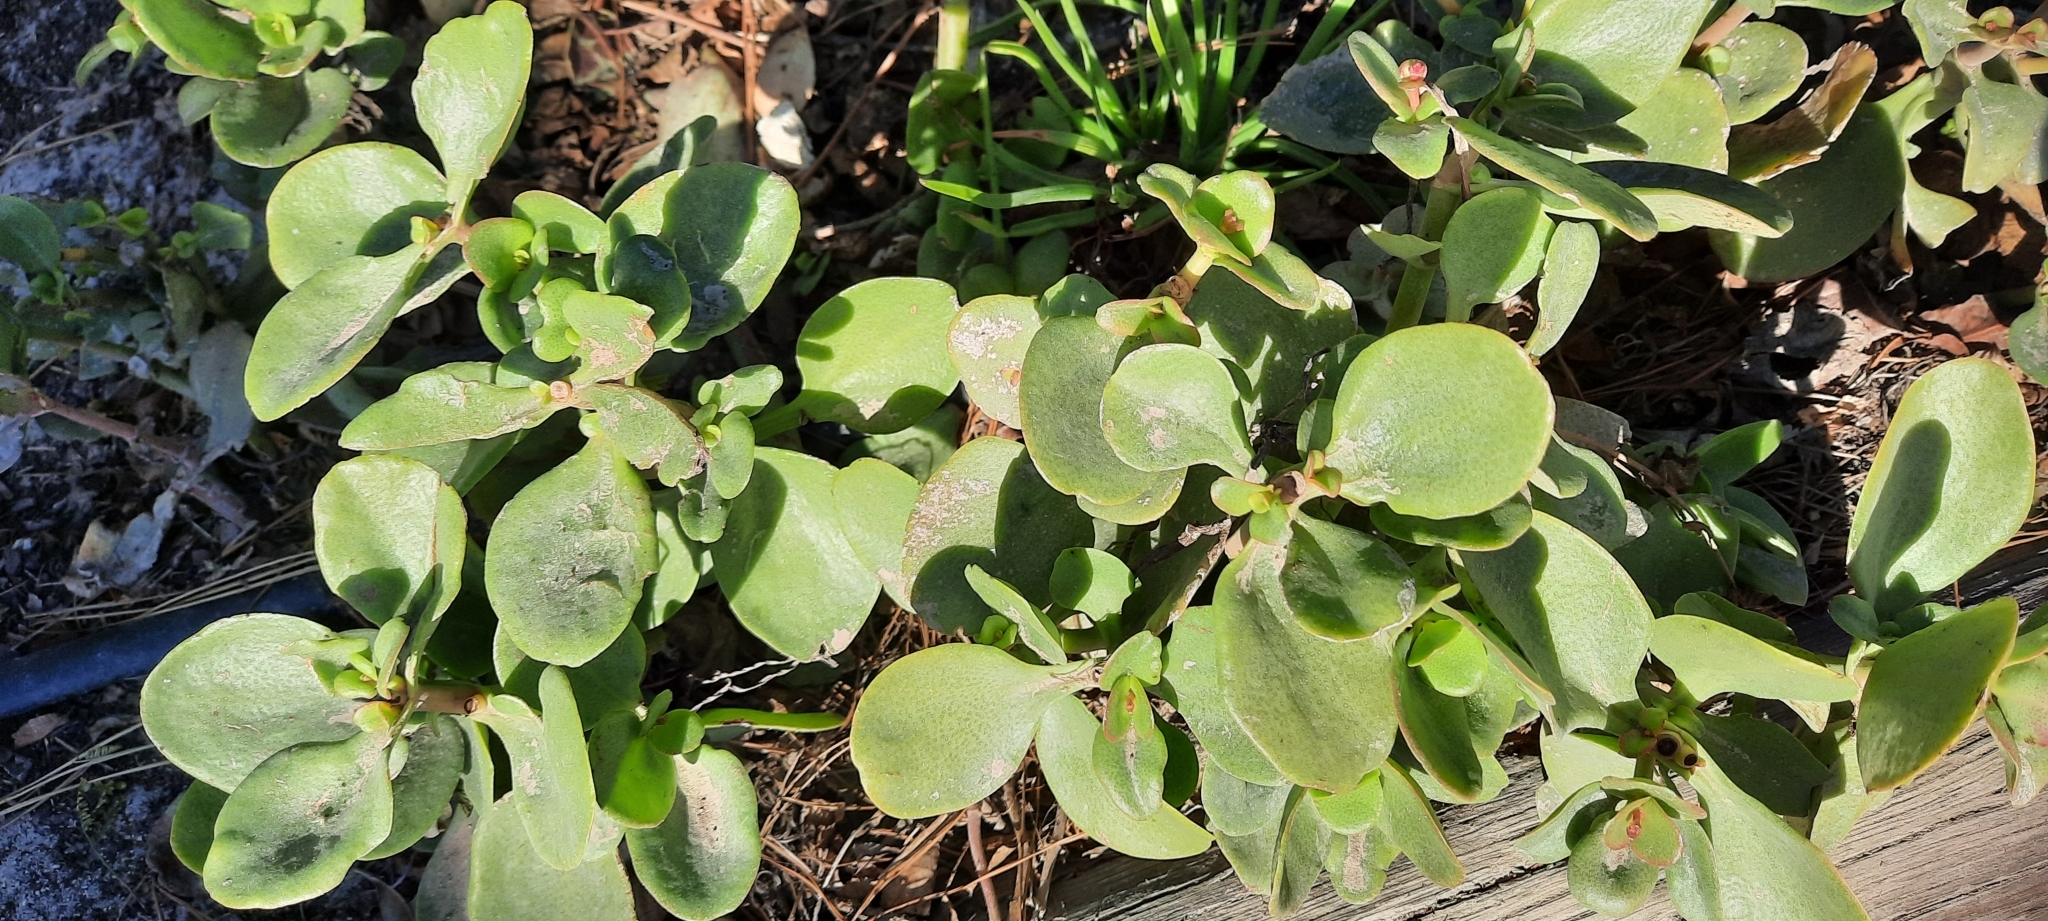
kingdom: Plantae
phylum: Tracheophyta
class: Magnoliopsida
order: Saxifragales
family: Crassulaceae
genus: Crassula
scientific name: Crassula multicava
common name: Cape province pygmyweed
